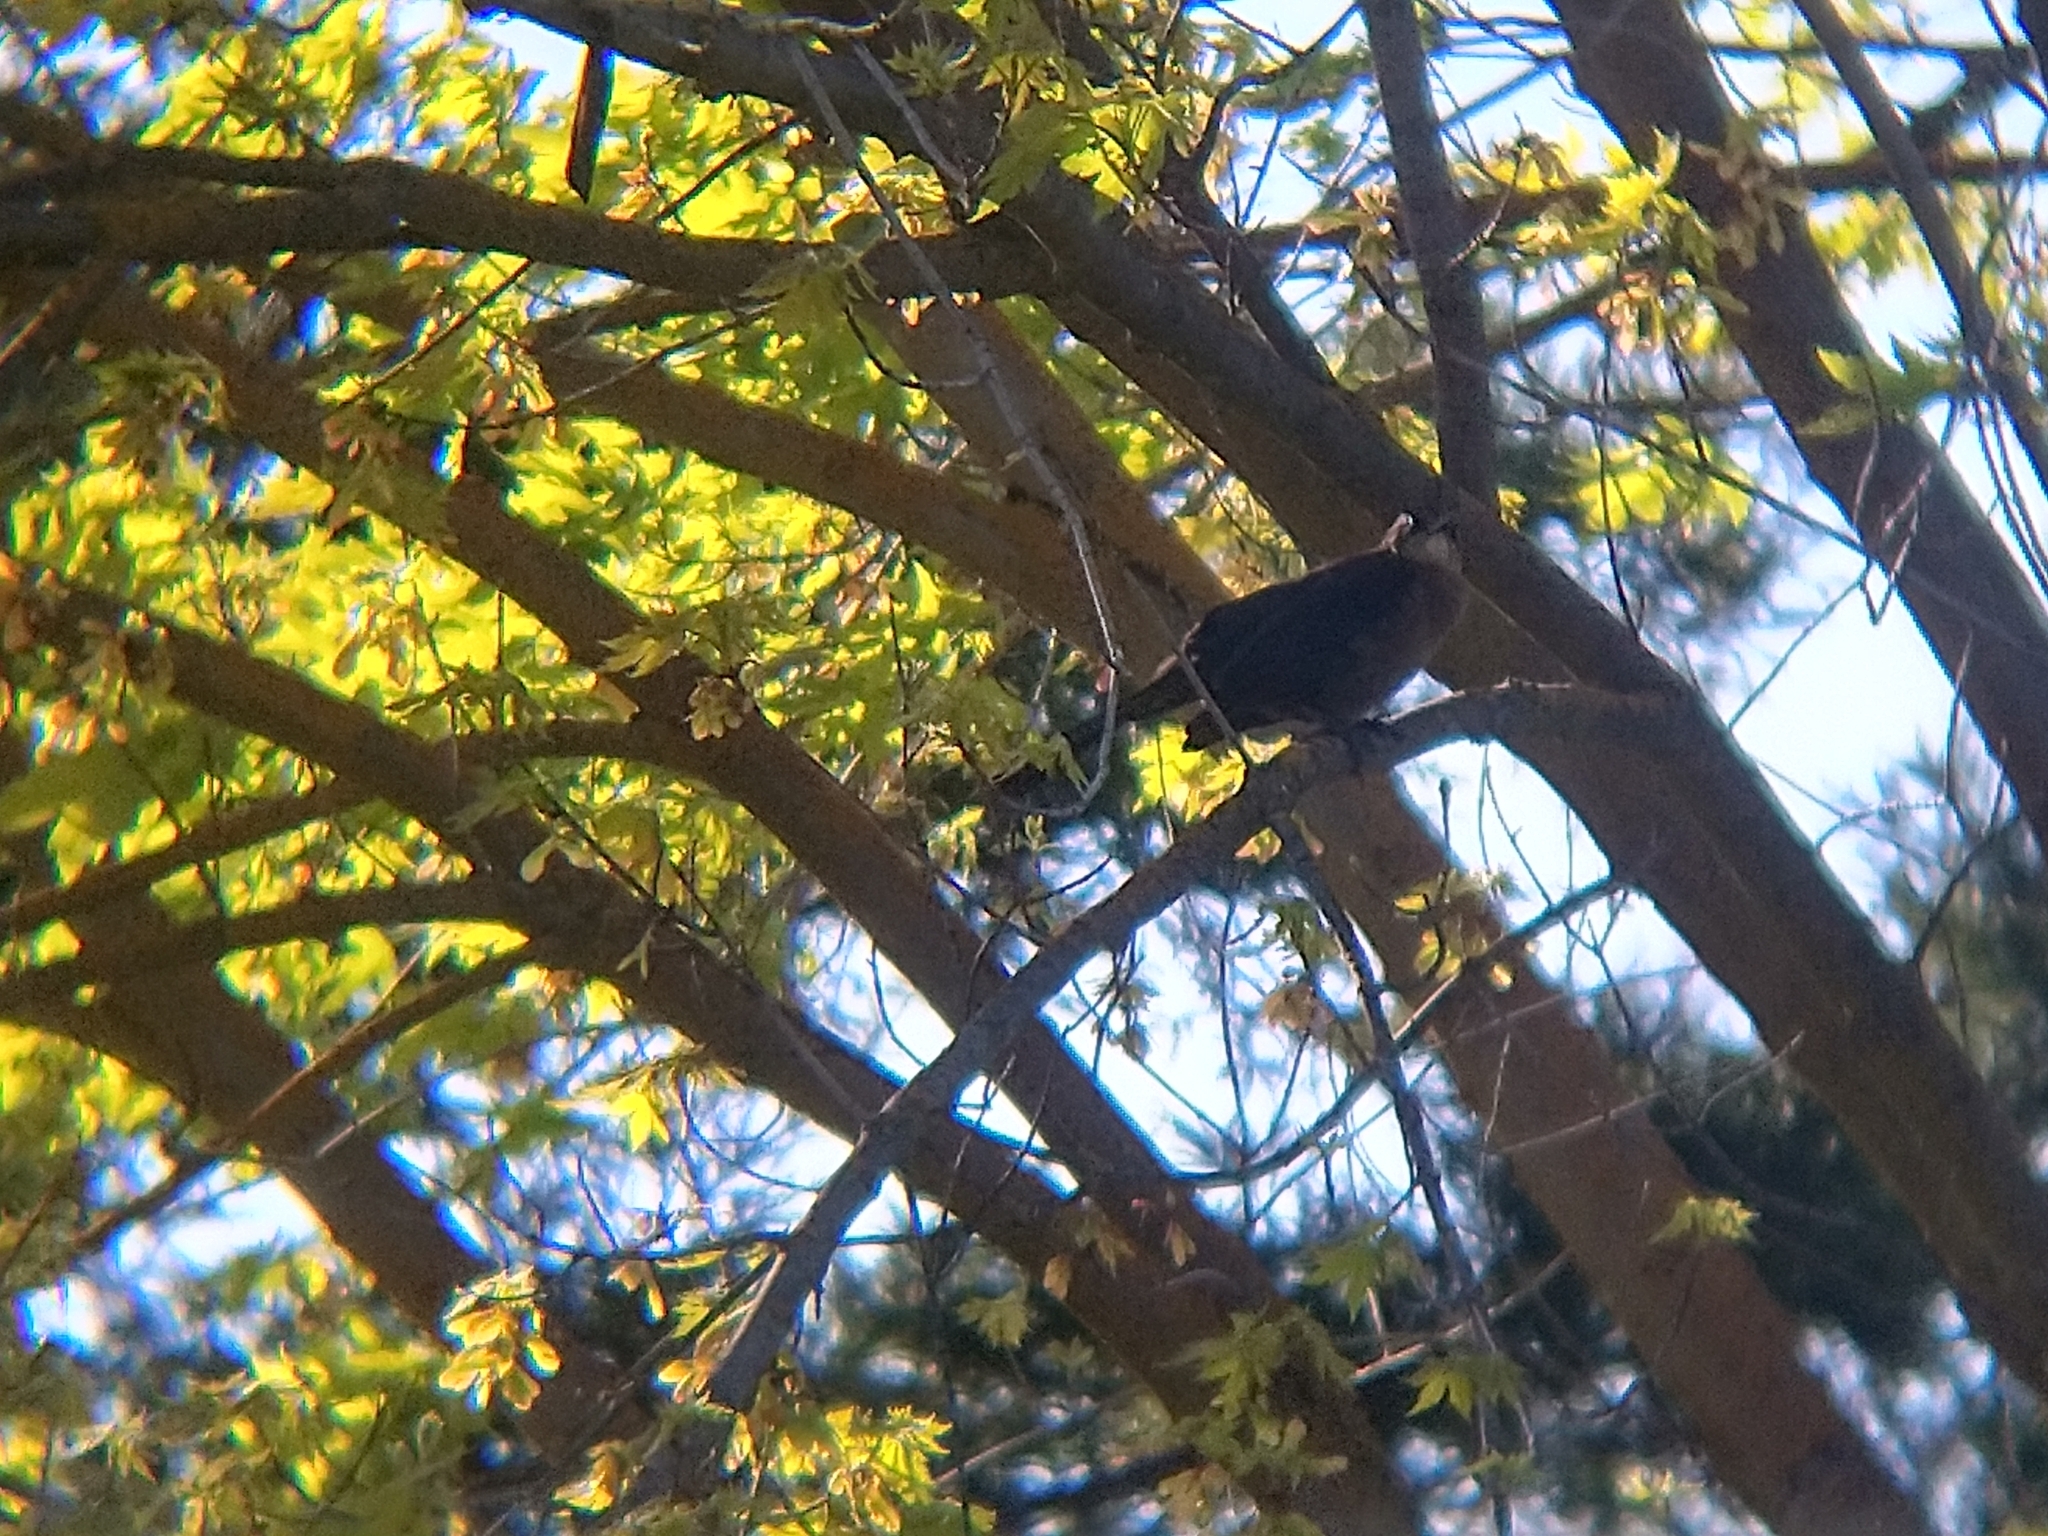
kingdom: Animalia
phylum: Chordata
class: Aves
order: Passeriformes
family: Icteridae
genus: Quiscalus
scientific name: Quiscalus mexicanus
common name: Great-tailed grackle
